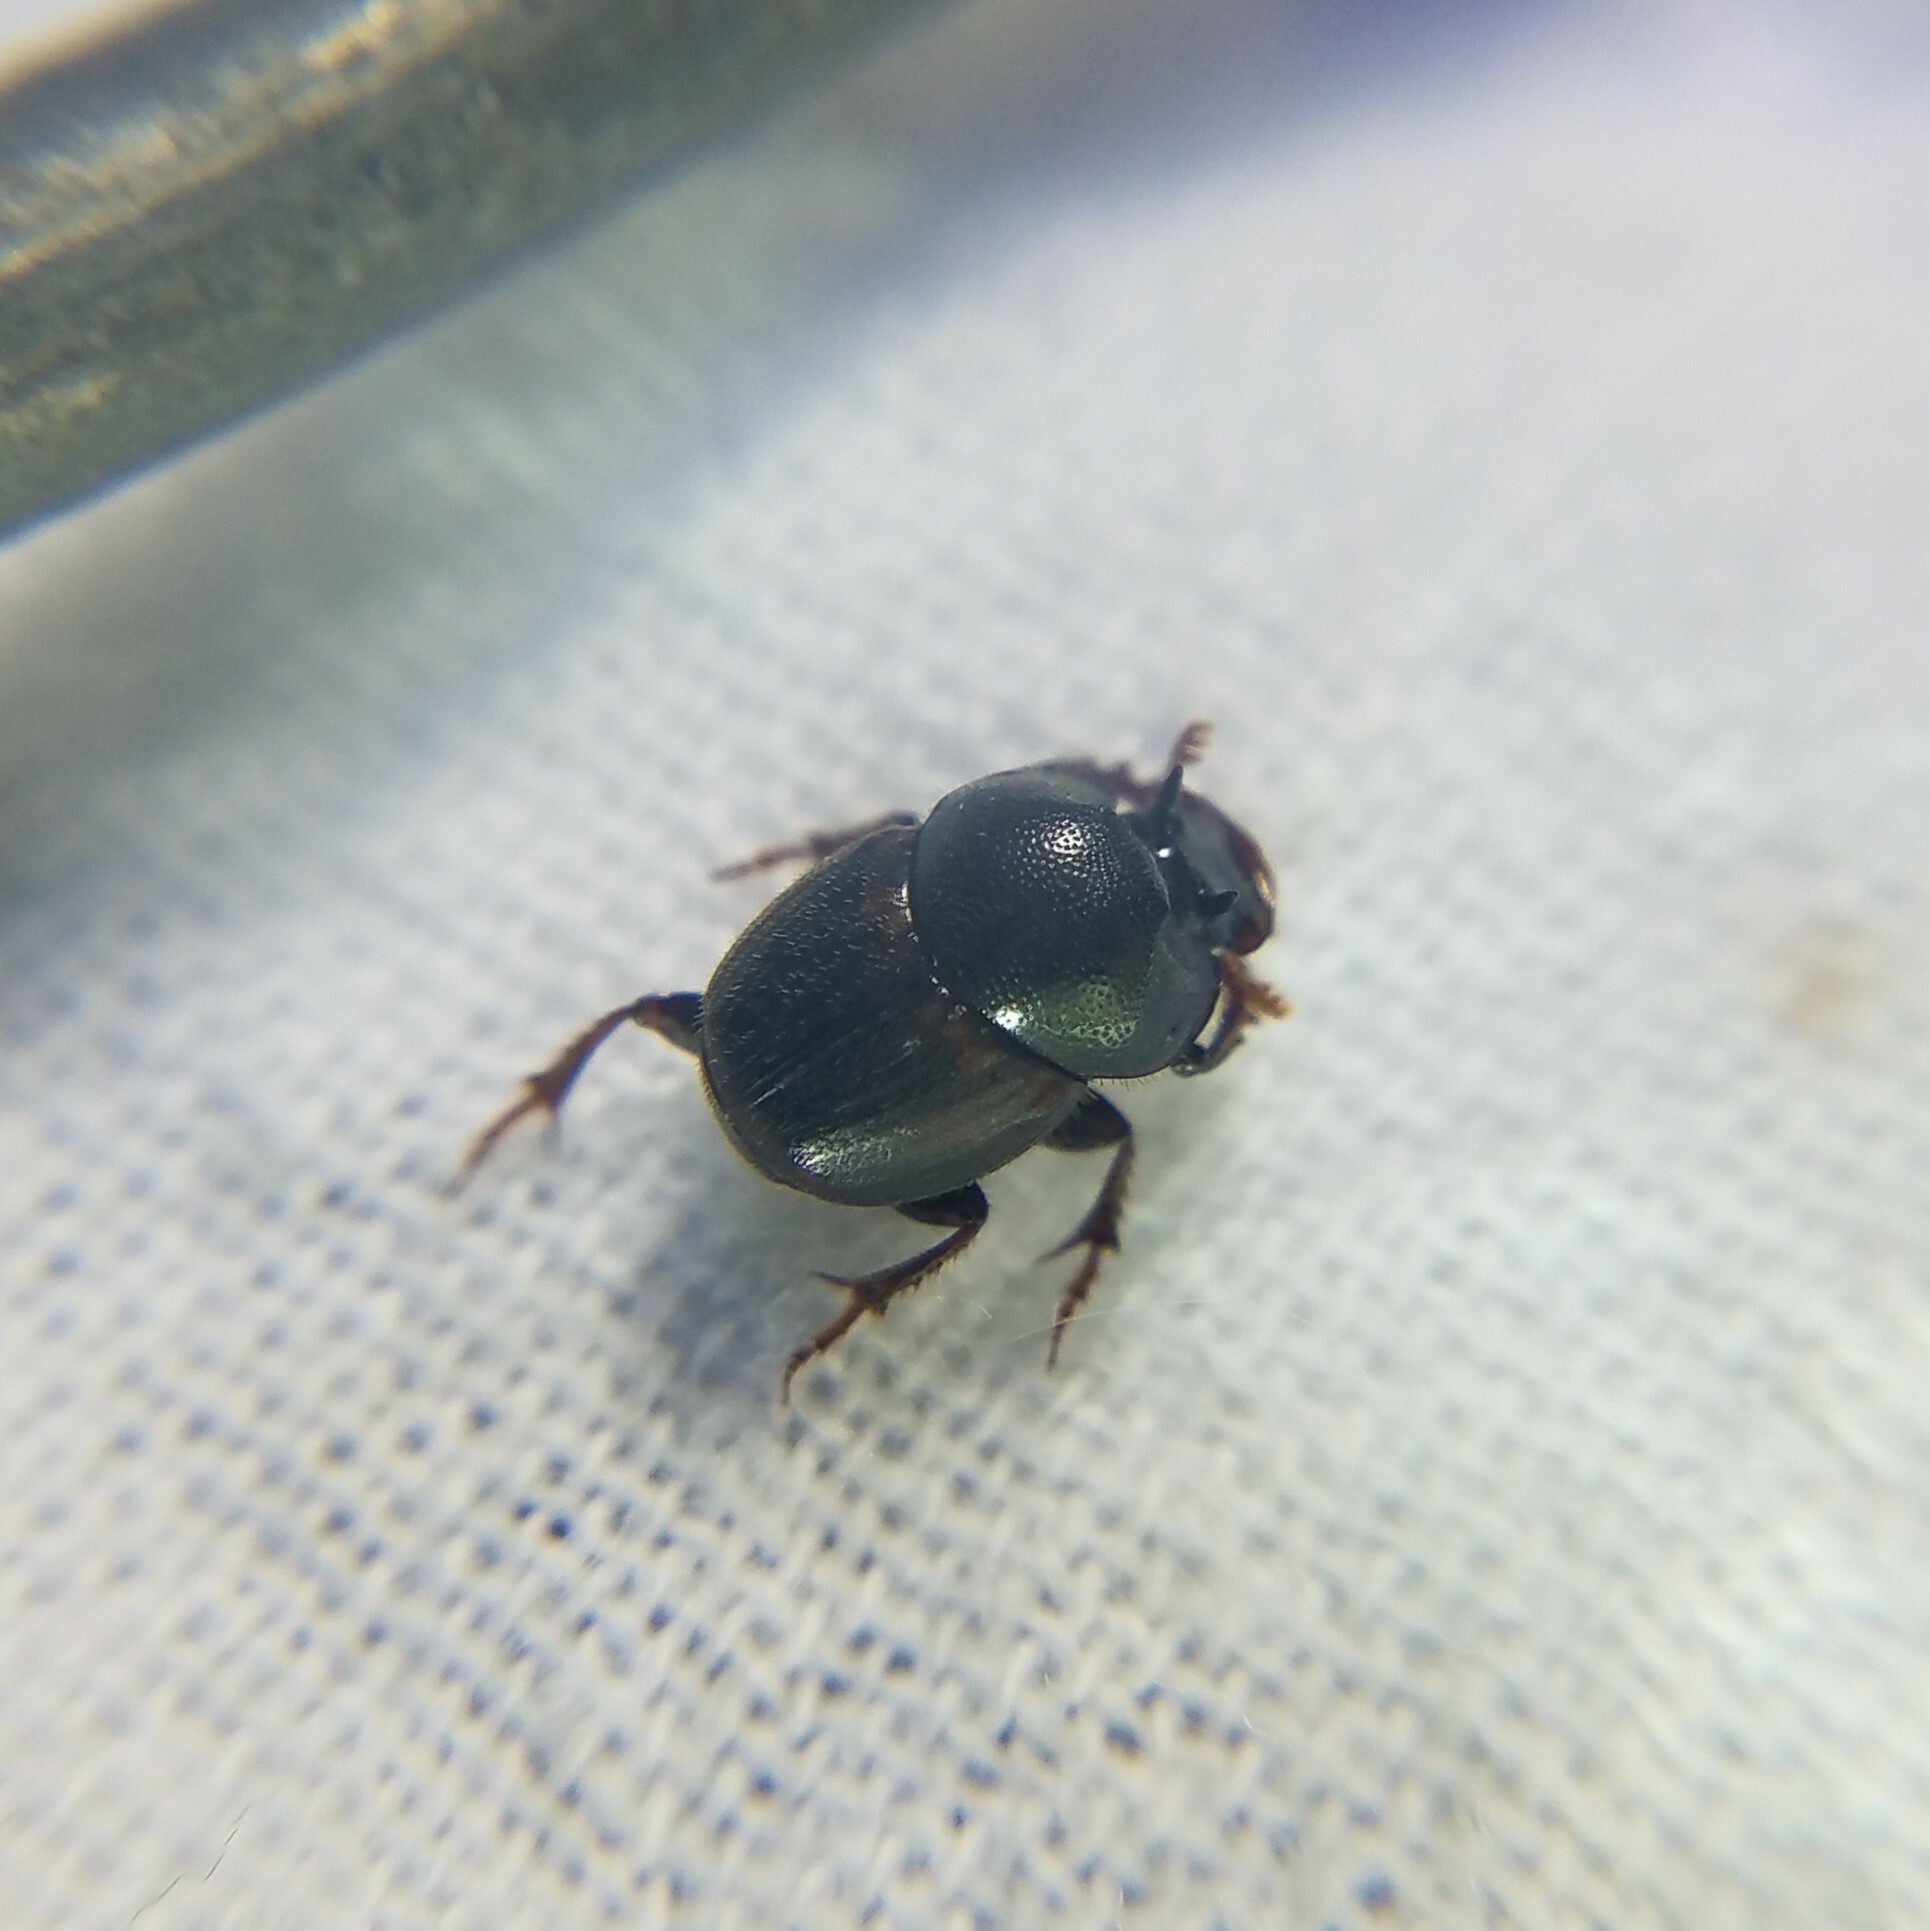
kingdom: Animalia
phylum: Arthropoda
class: Insecta
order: Coleoptera
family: Scarabaeidae
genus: Onthophagus
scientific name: Onthophagus striatulus
